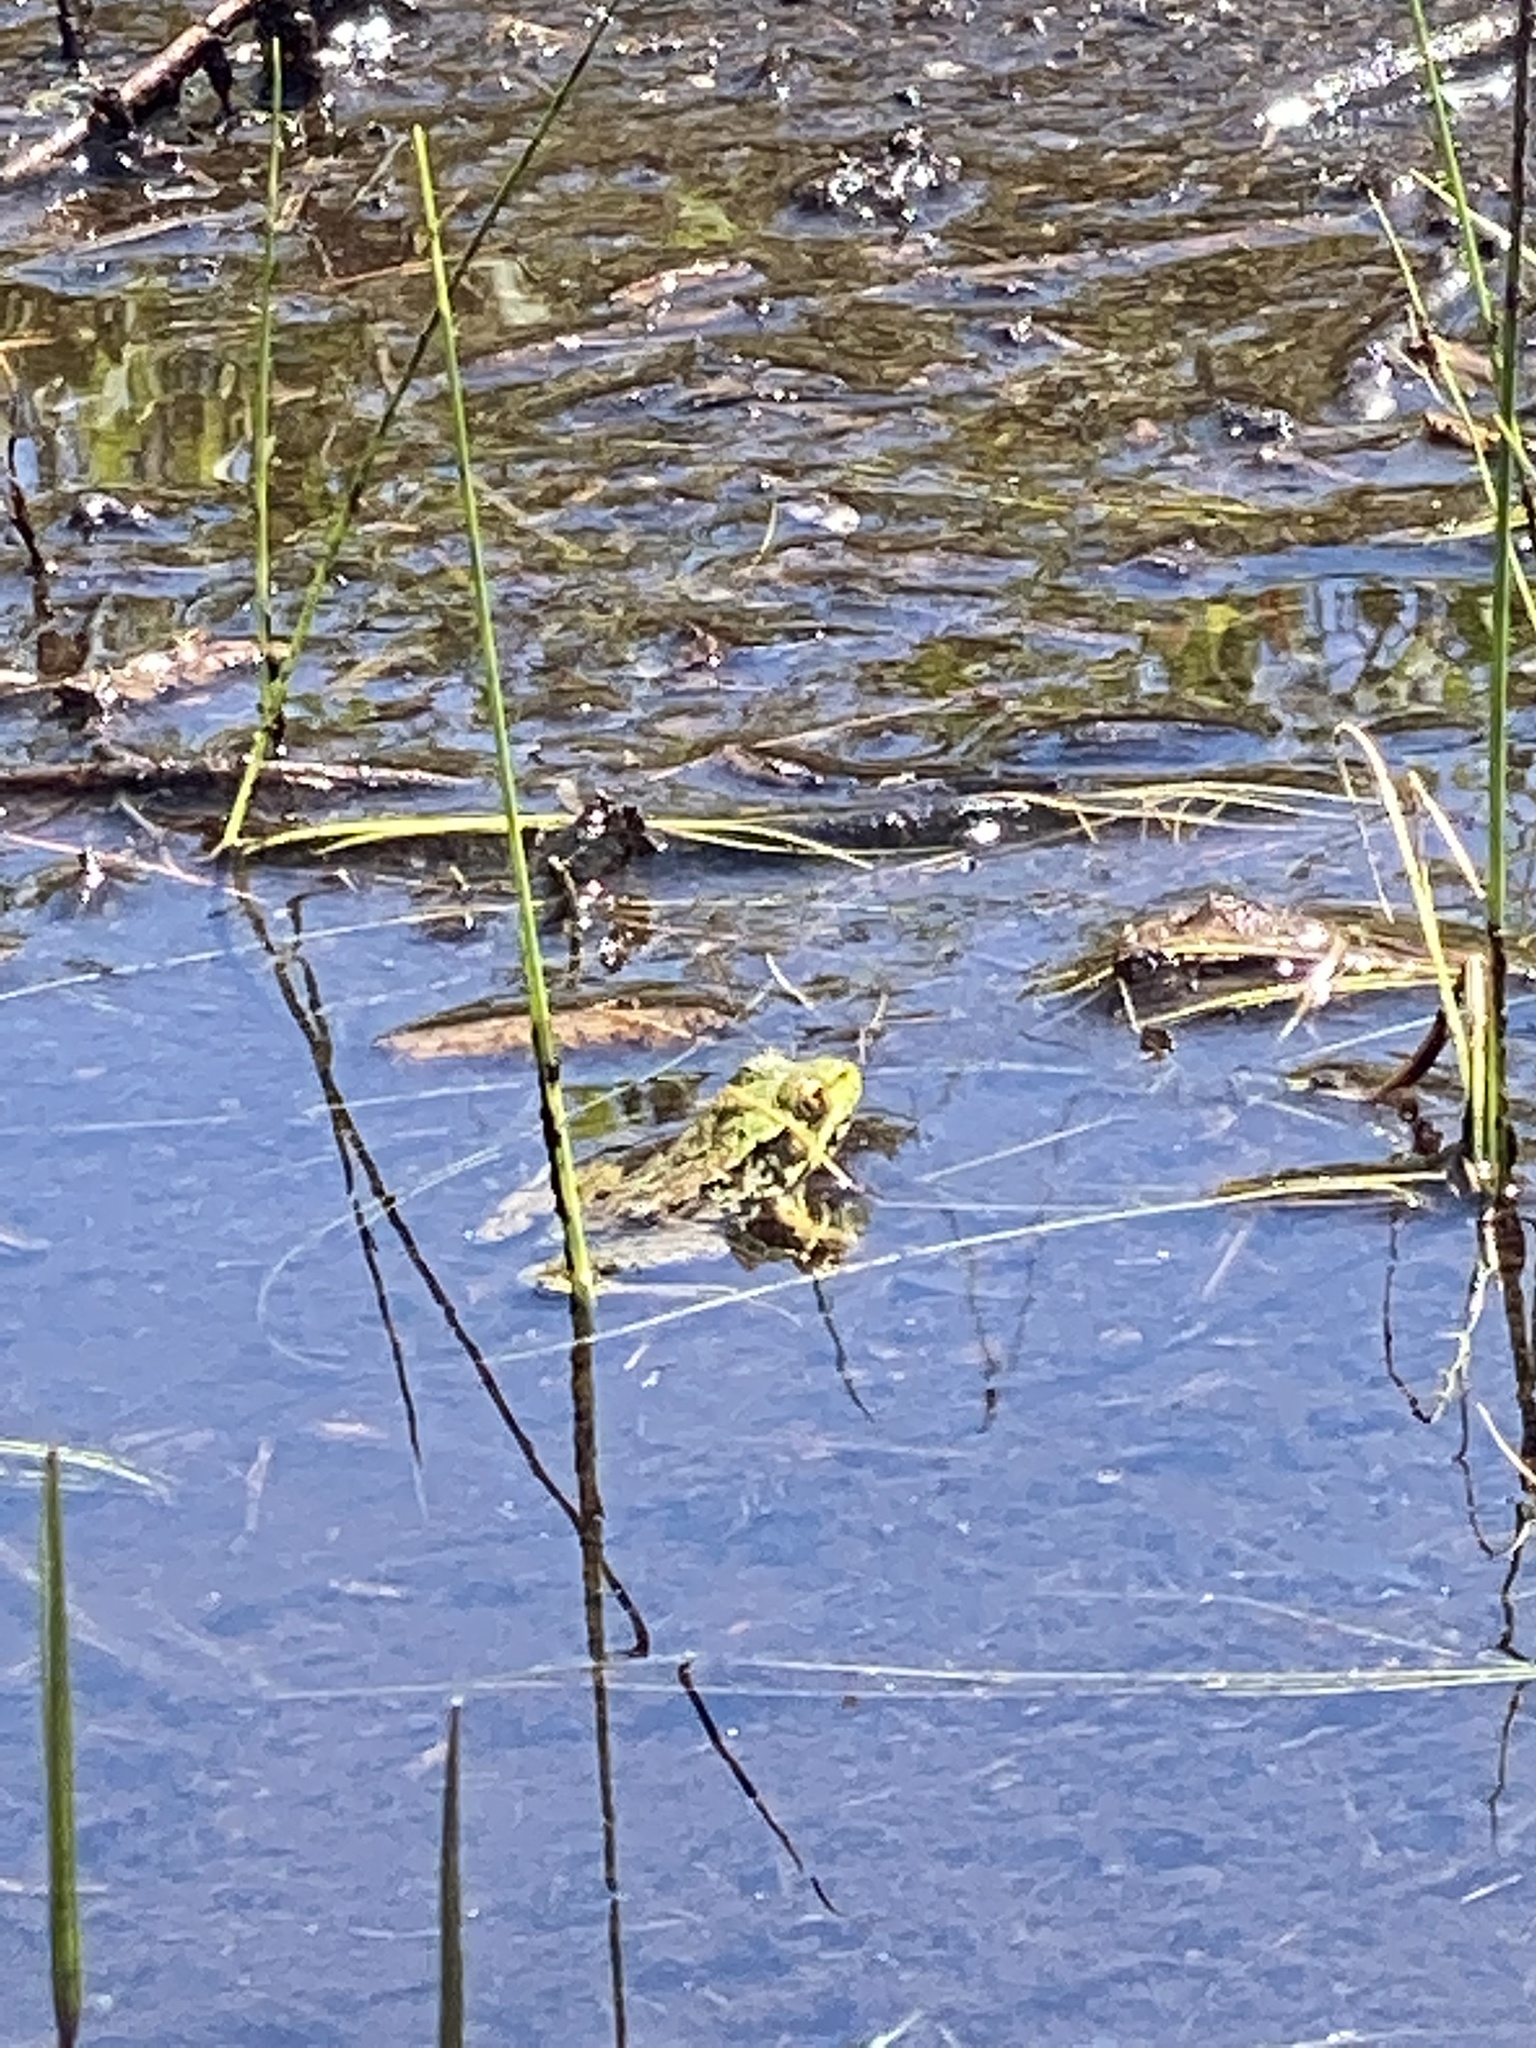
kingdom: Animalia
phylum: Chordata
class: Amphibia
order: Anura
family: Ranidae
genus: Lithobates
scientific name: Lithobates clamitans
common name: Green frog
